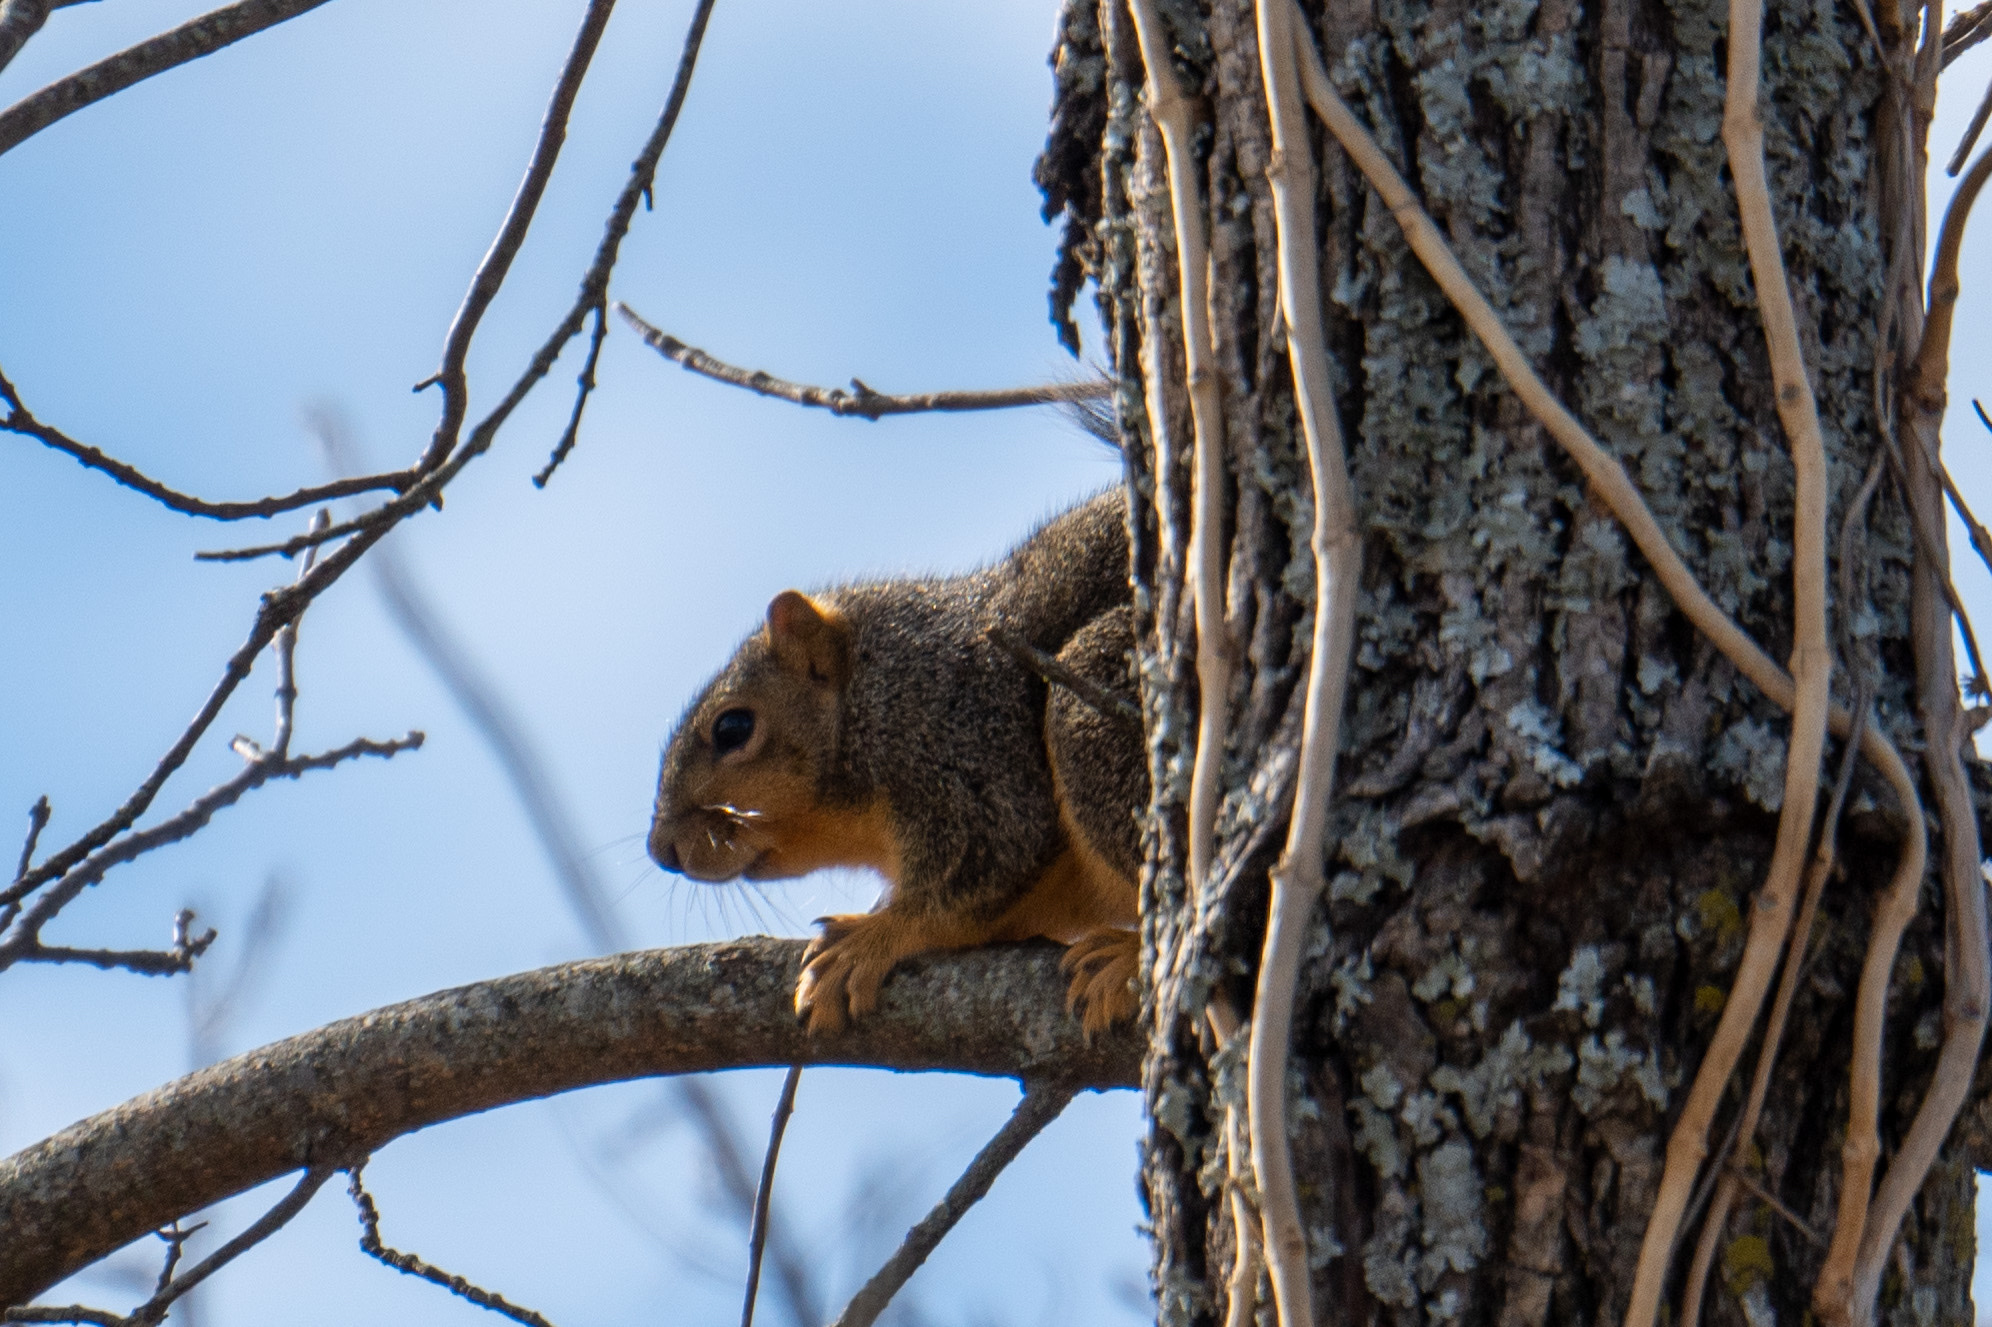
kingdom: Animalia
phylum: Chordata
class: Mammalia
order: Rodentia
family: Sciuridae
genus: Sciurus
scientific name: Sciurus niger
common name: Fox squirrel
